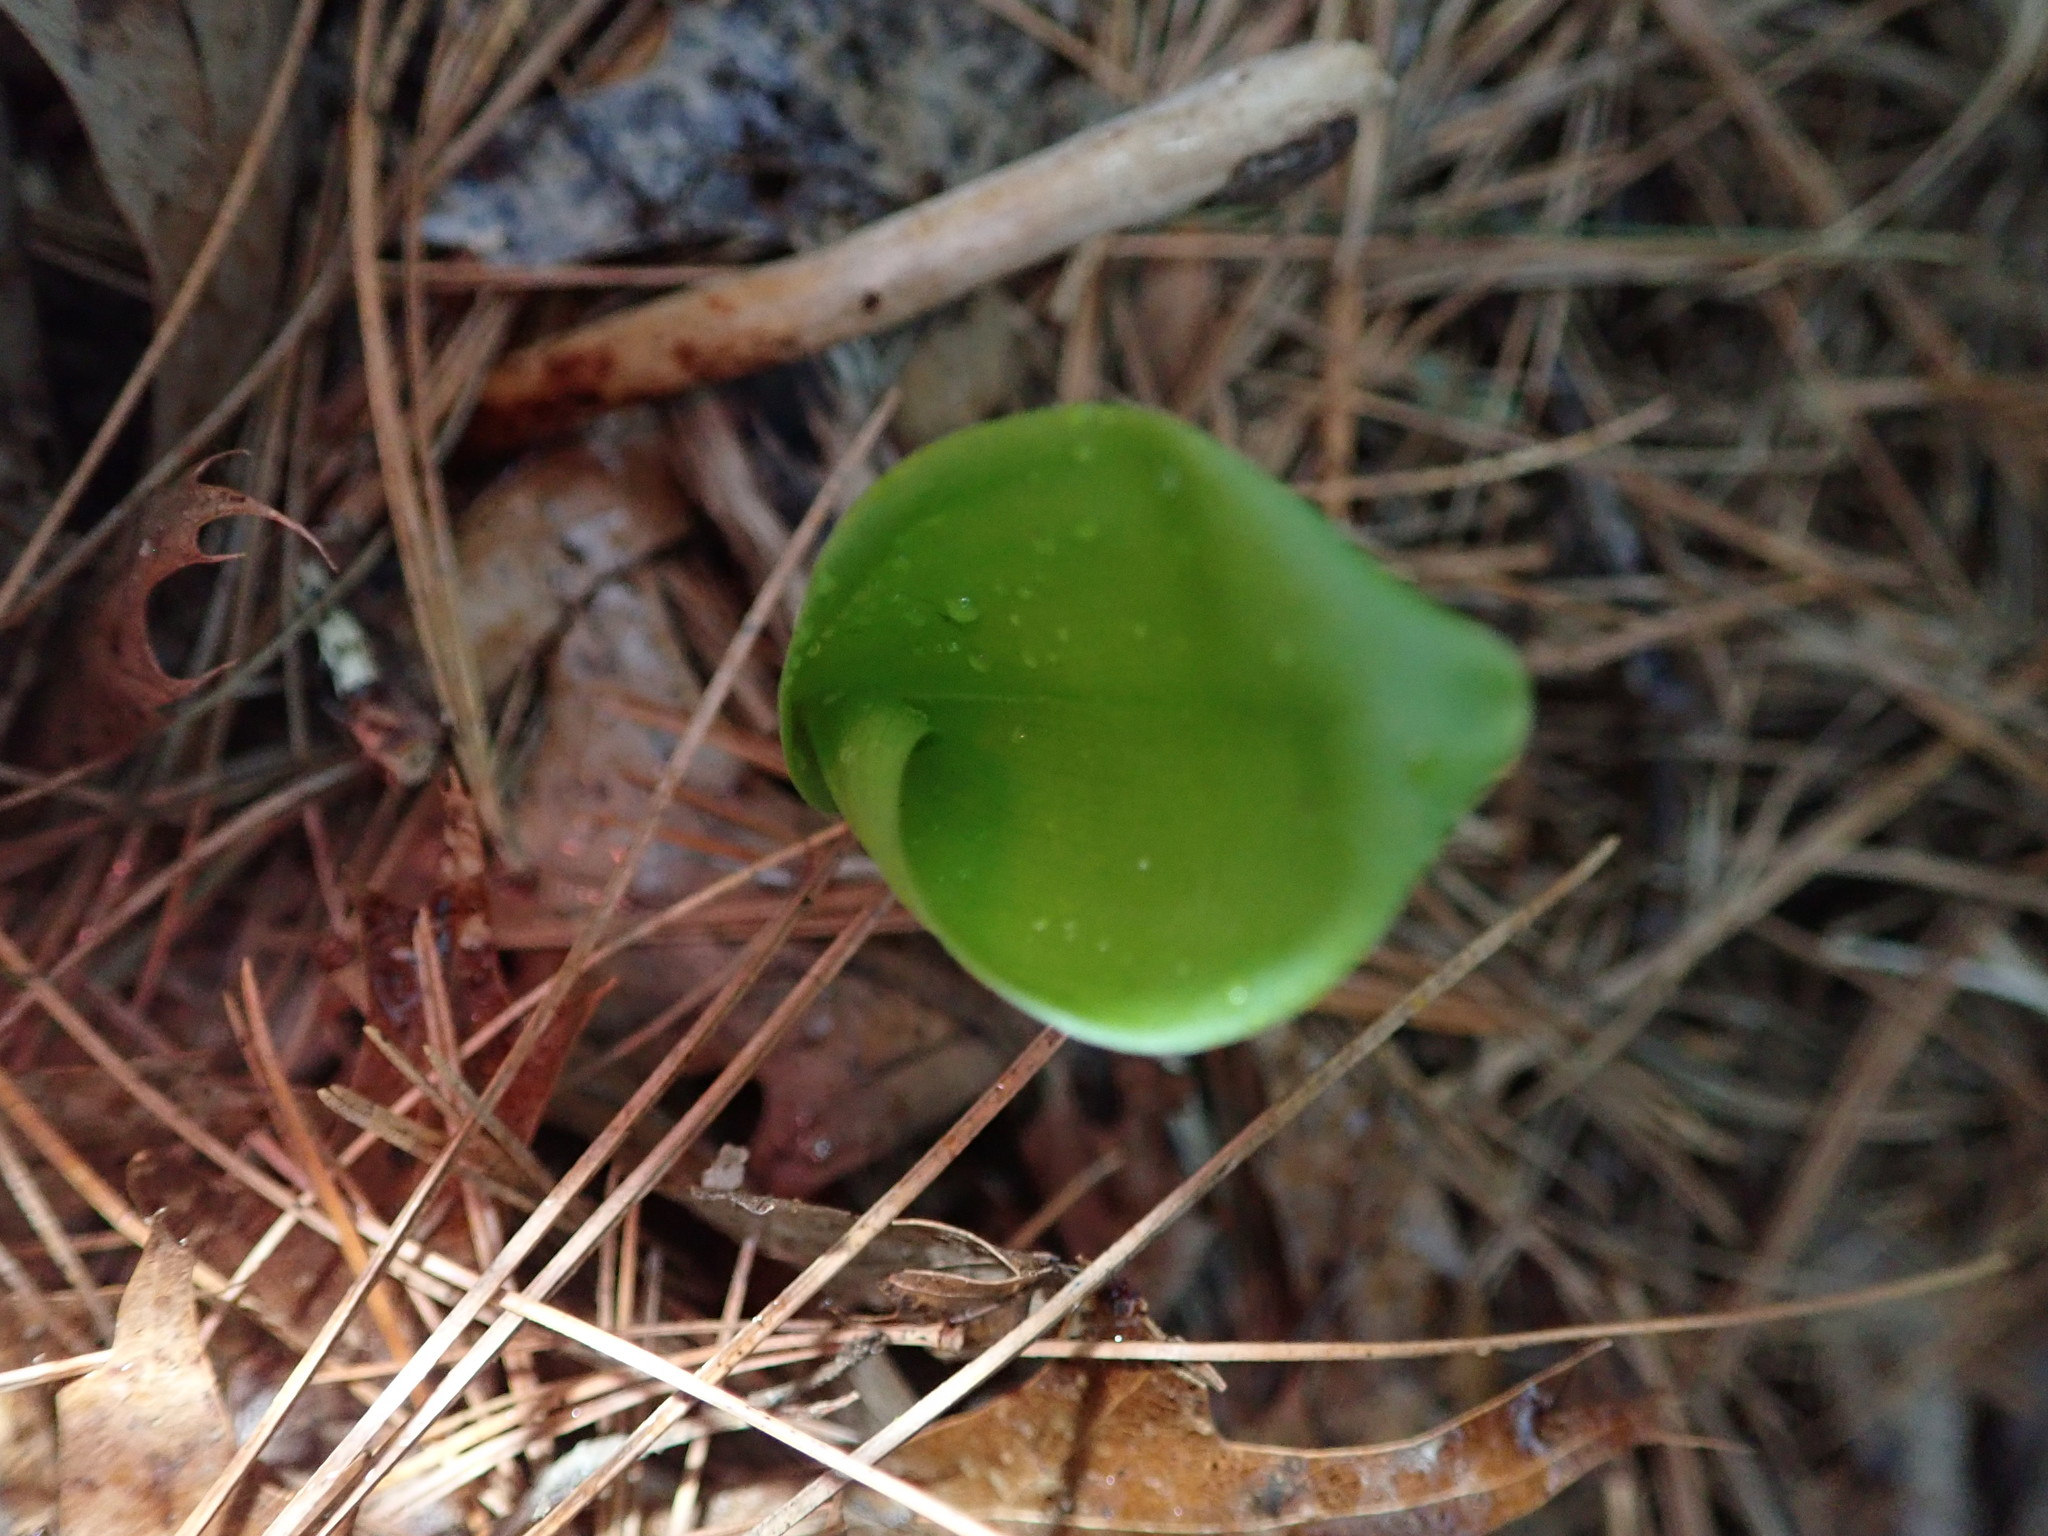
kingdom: Plantae
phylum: Tracheophyta
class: Liliopsida
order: Asparagales
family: Asparagaceae
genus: Maianthemum
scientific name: Maianthemum canadense
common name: False lily-of-the-valley
